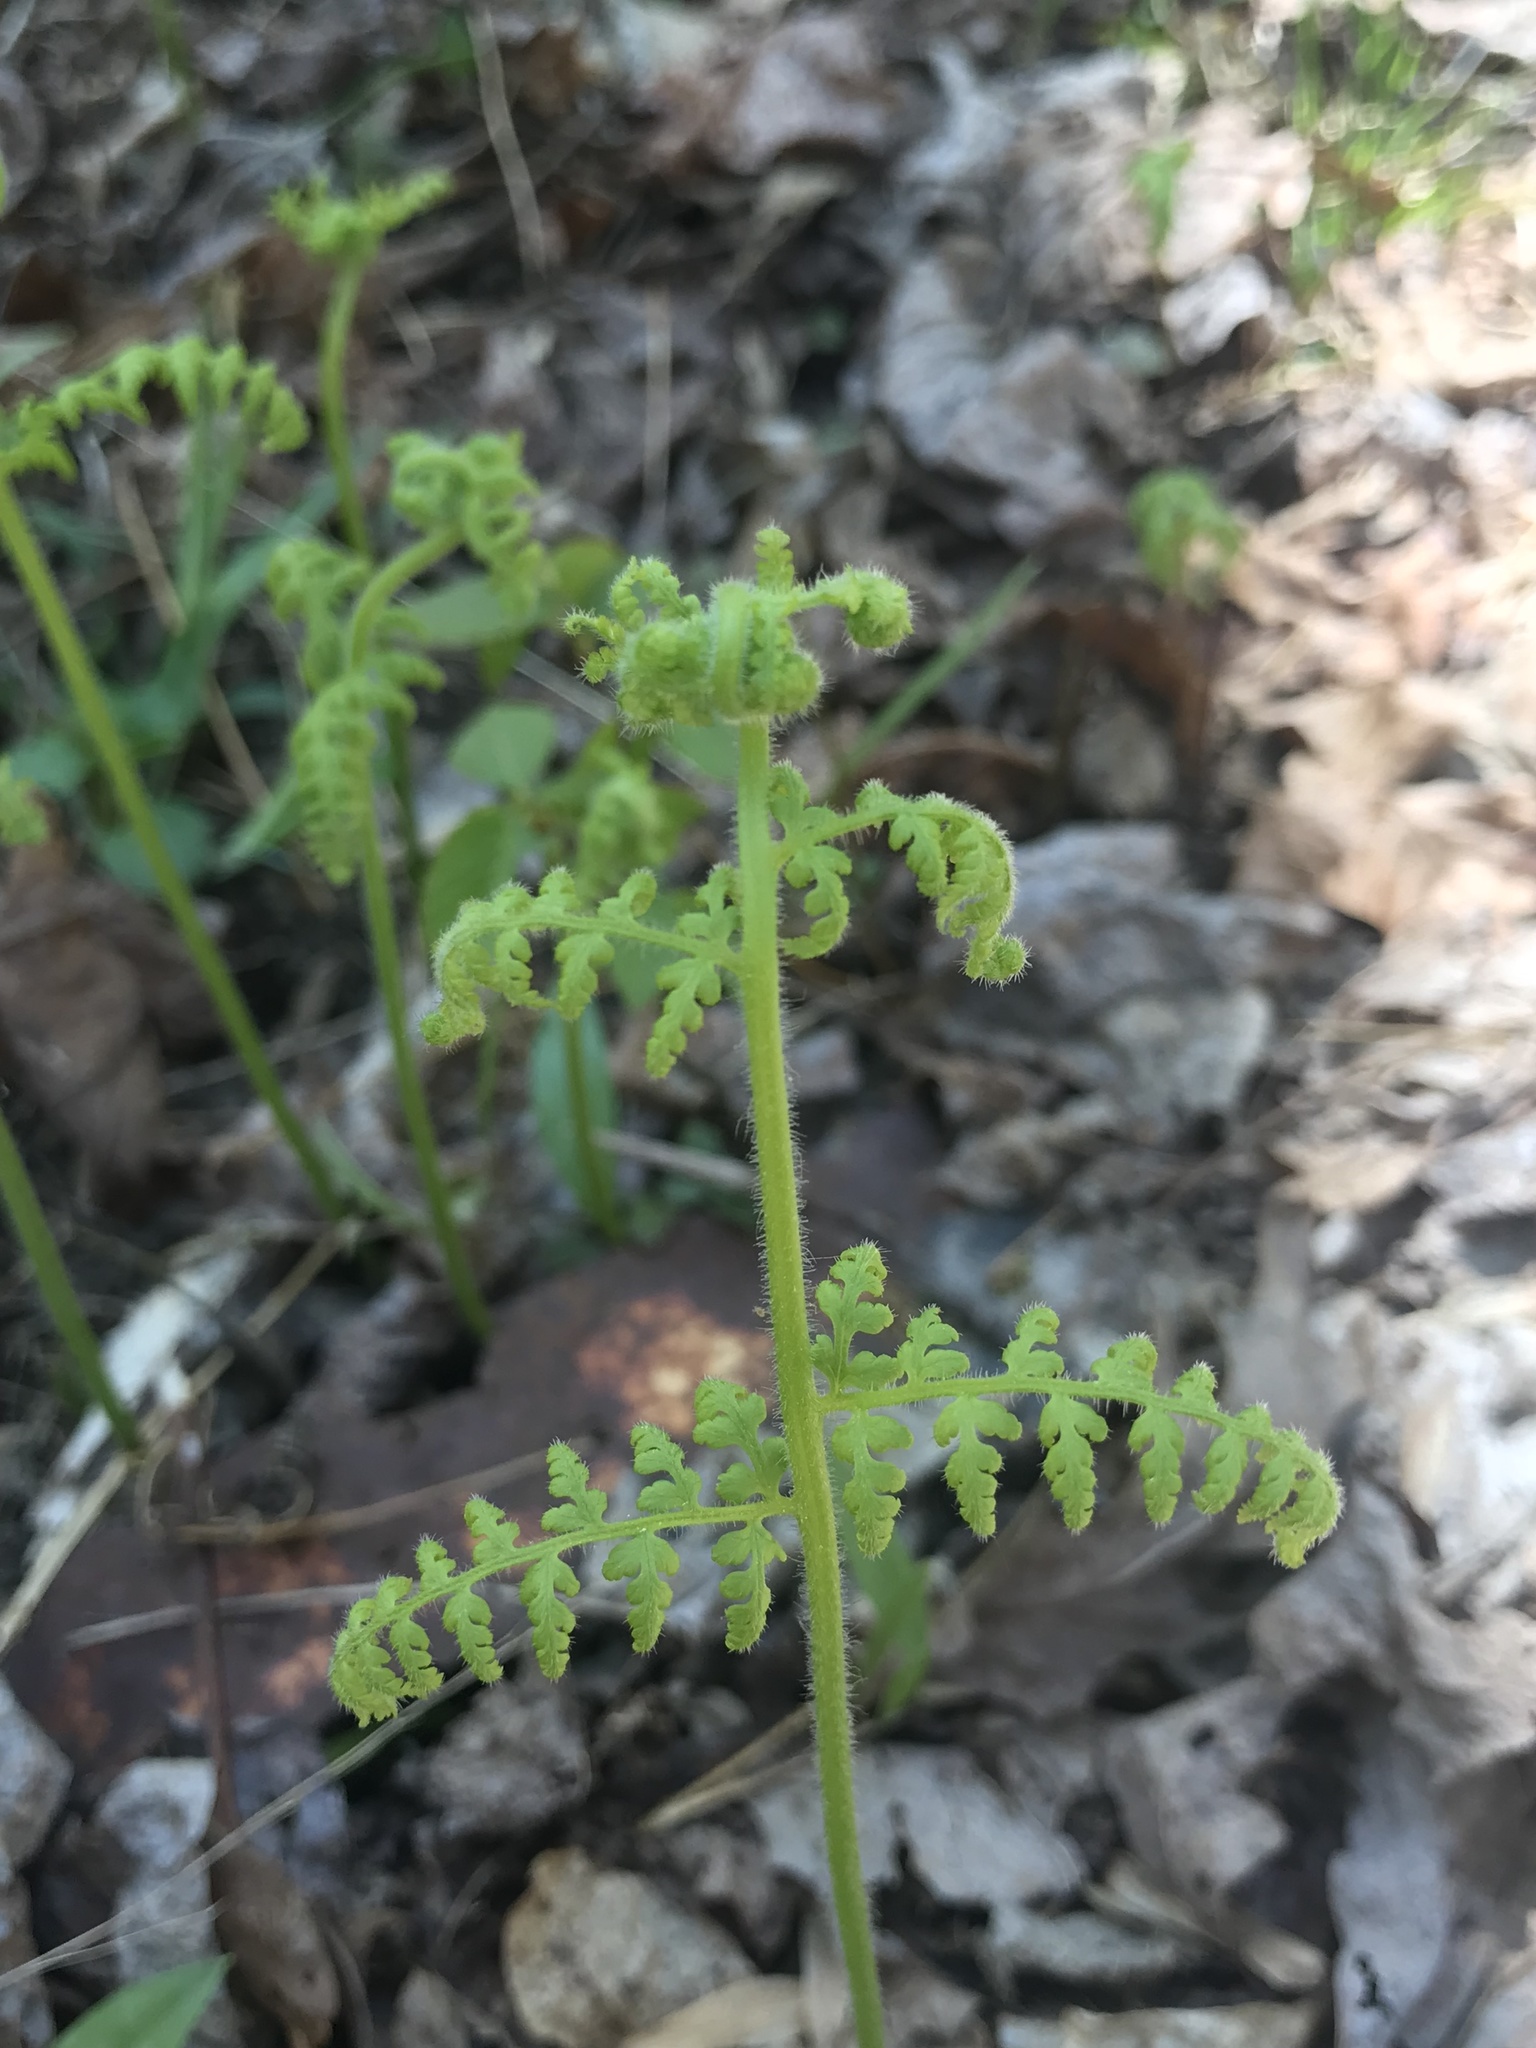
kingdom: Plantae
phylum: Tracheophyta
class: Polypodiopsida
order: Polypodiales
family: Dennstaedtiaceae
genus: Sitobolium
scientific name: Sitobolium punctilobum
